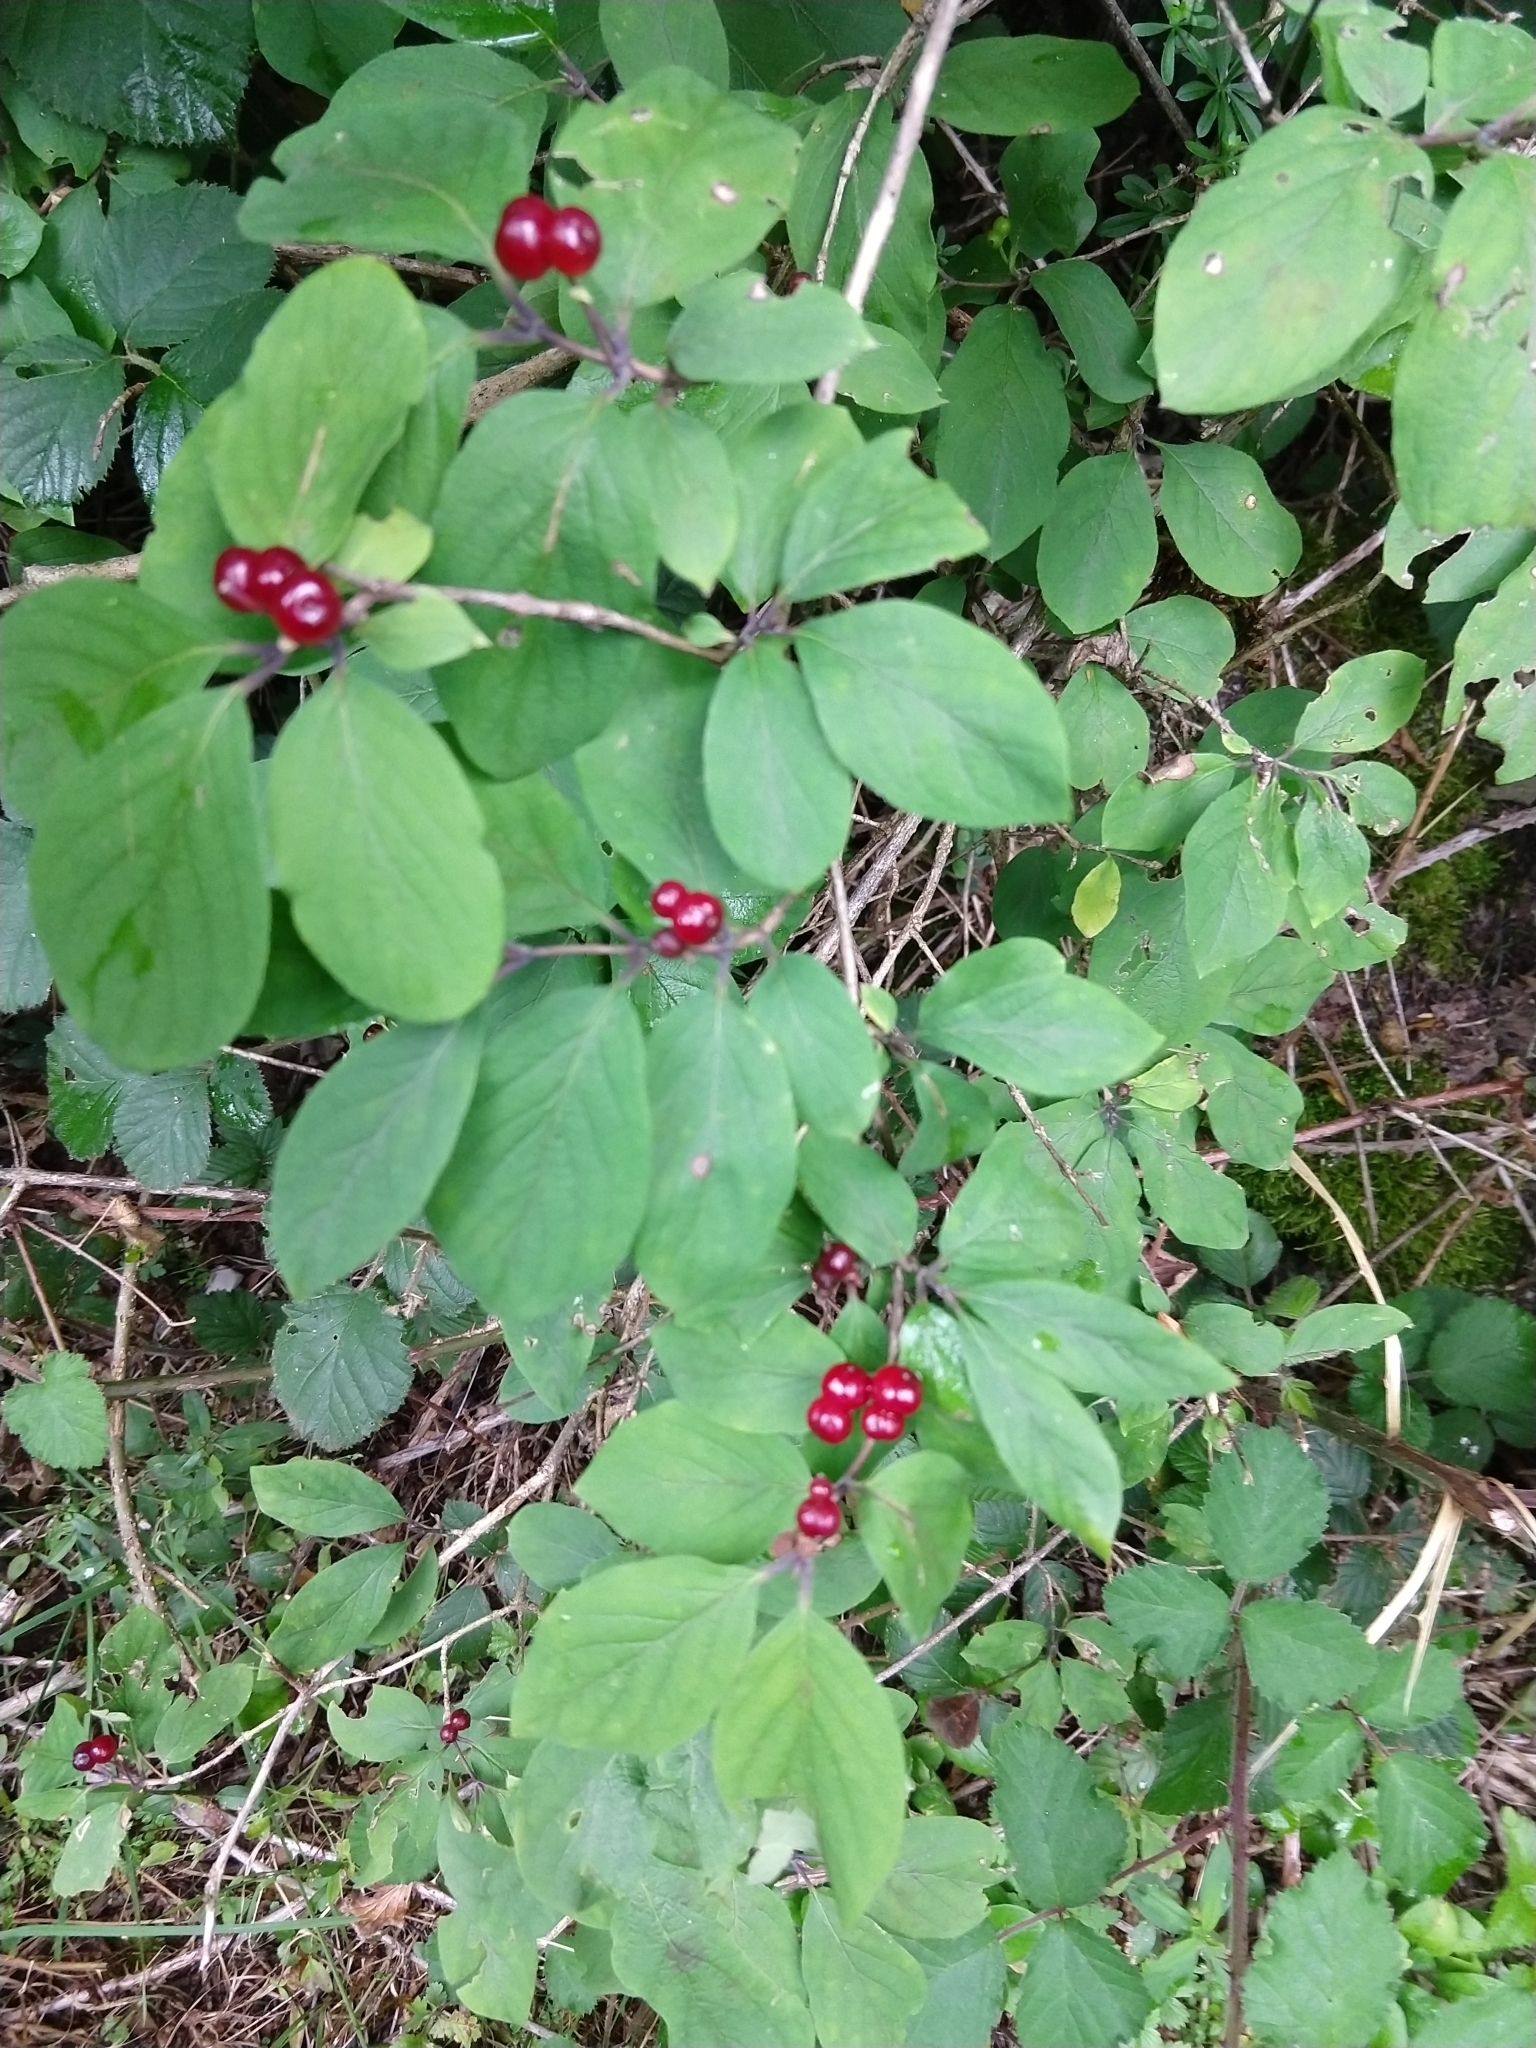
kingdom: Plantae
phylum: Tracheophyta
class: Magnoliopsida
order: Dipsacales
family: Caprifoliaceae
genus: Lonicera
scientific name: Lonicera xylosteum
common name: Fly honeysuckle
